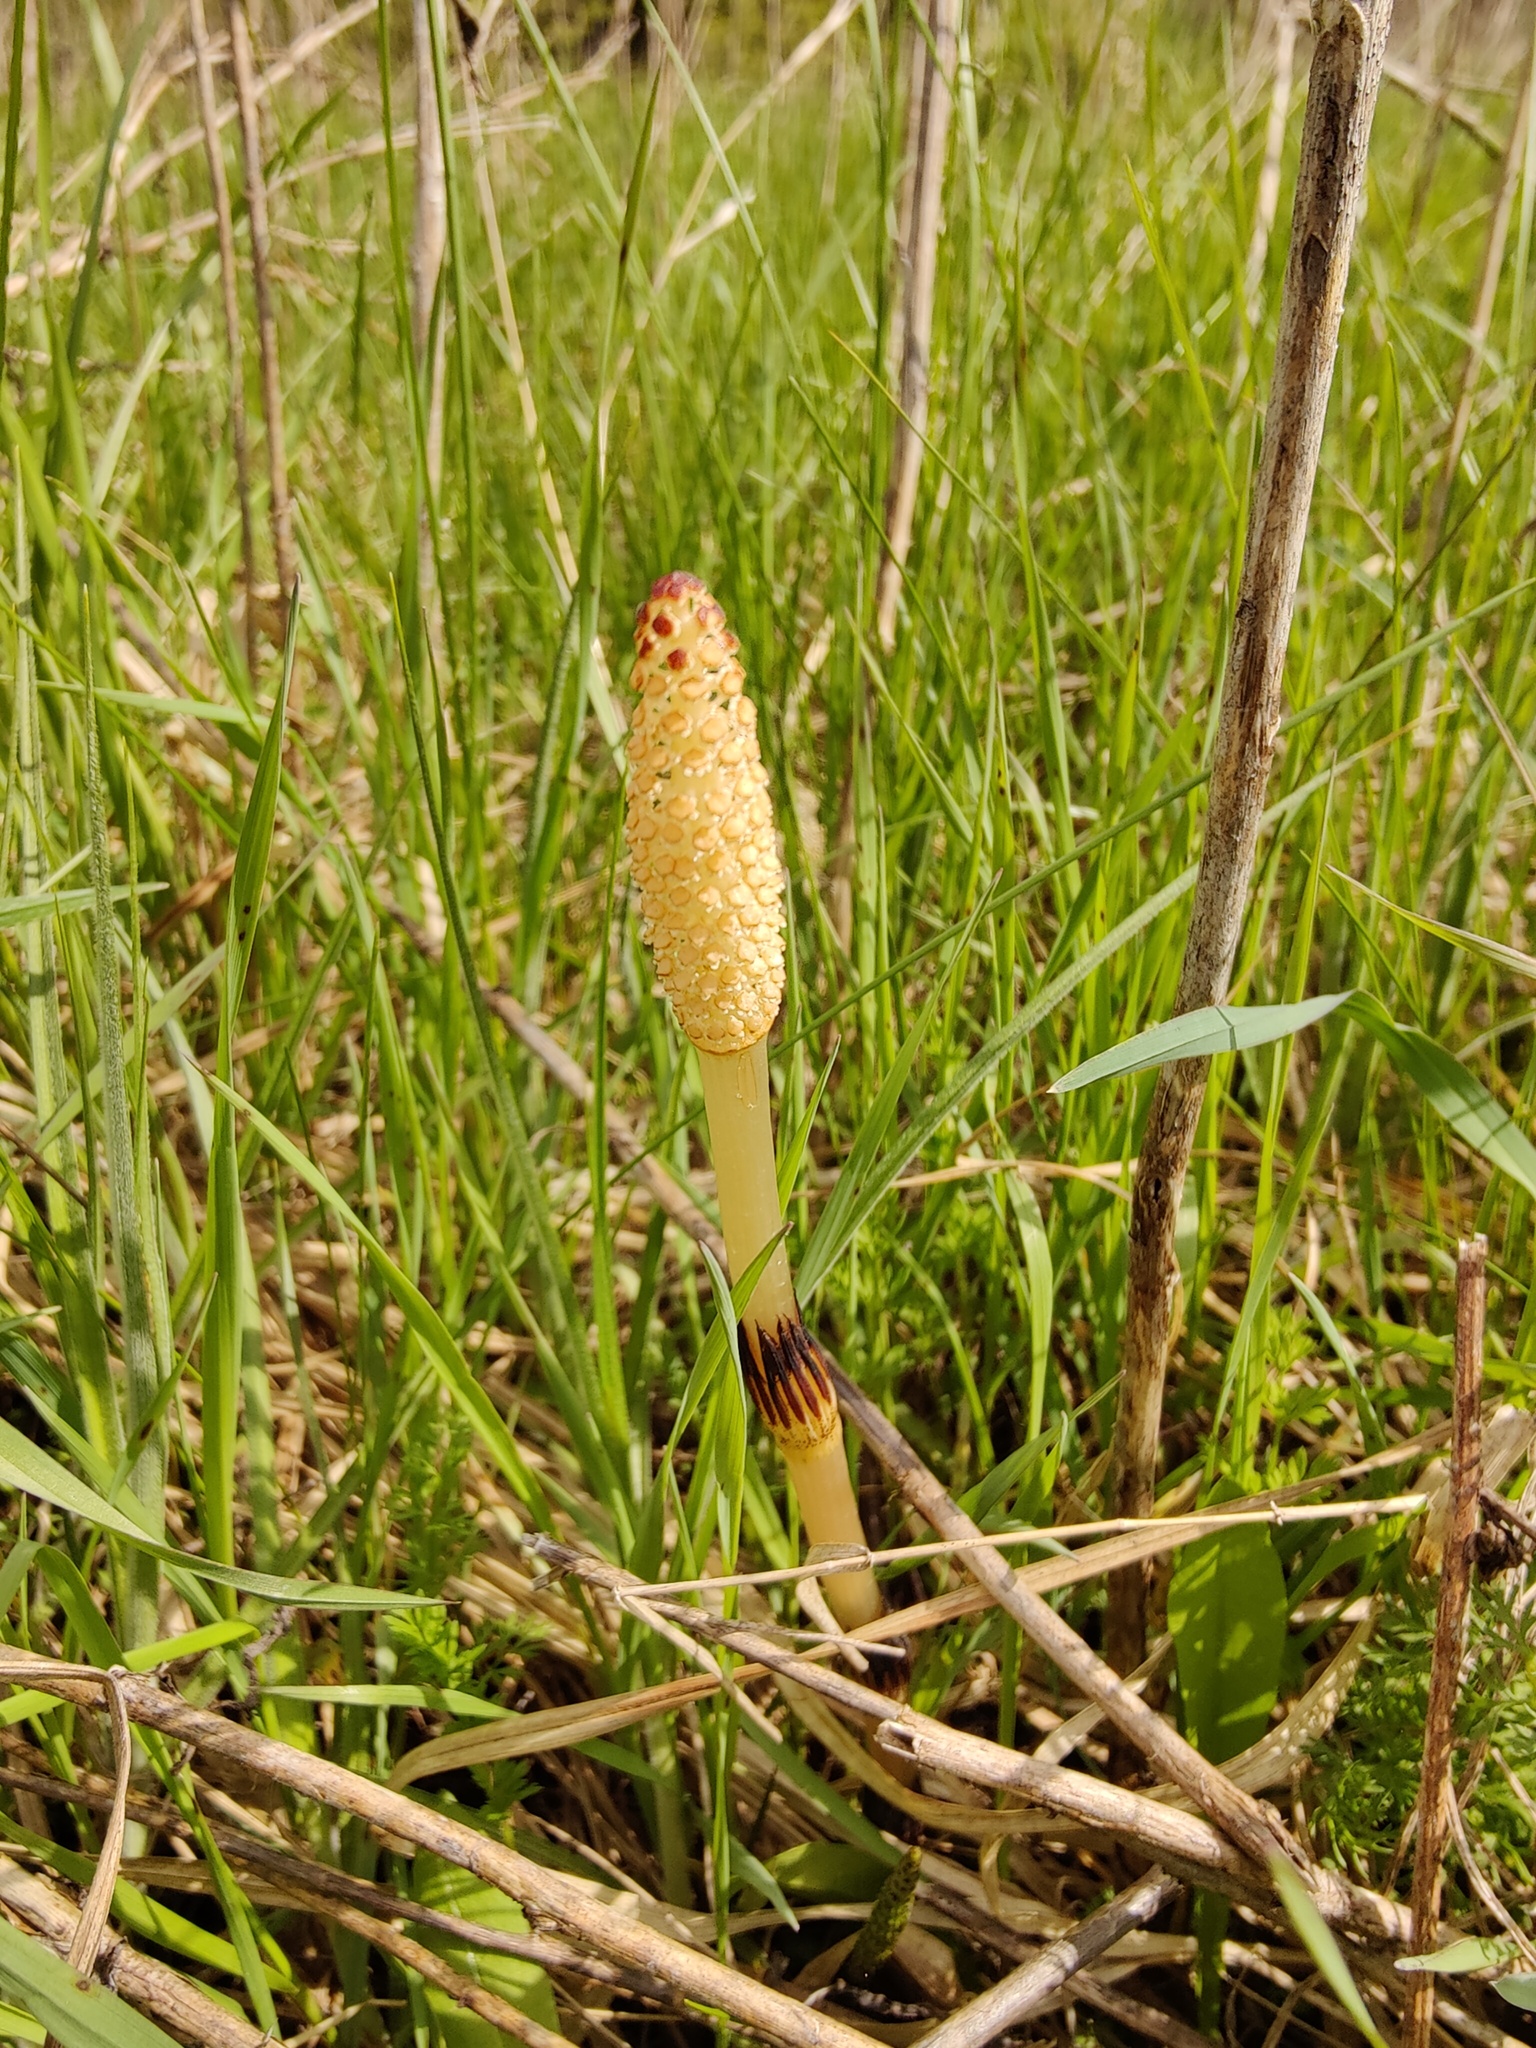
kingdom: Plantae
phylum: Tracheophyta
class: Polypodiopsida
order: Equisetales
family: Equisetaceae
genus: Equisetum
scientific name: Equisetum arvense
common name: Field horsetail
